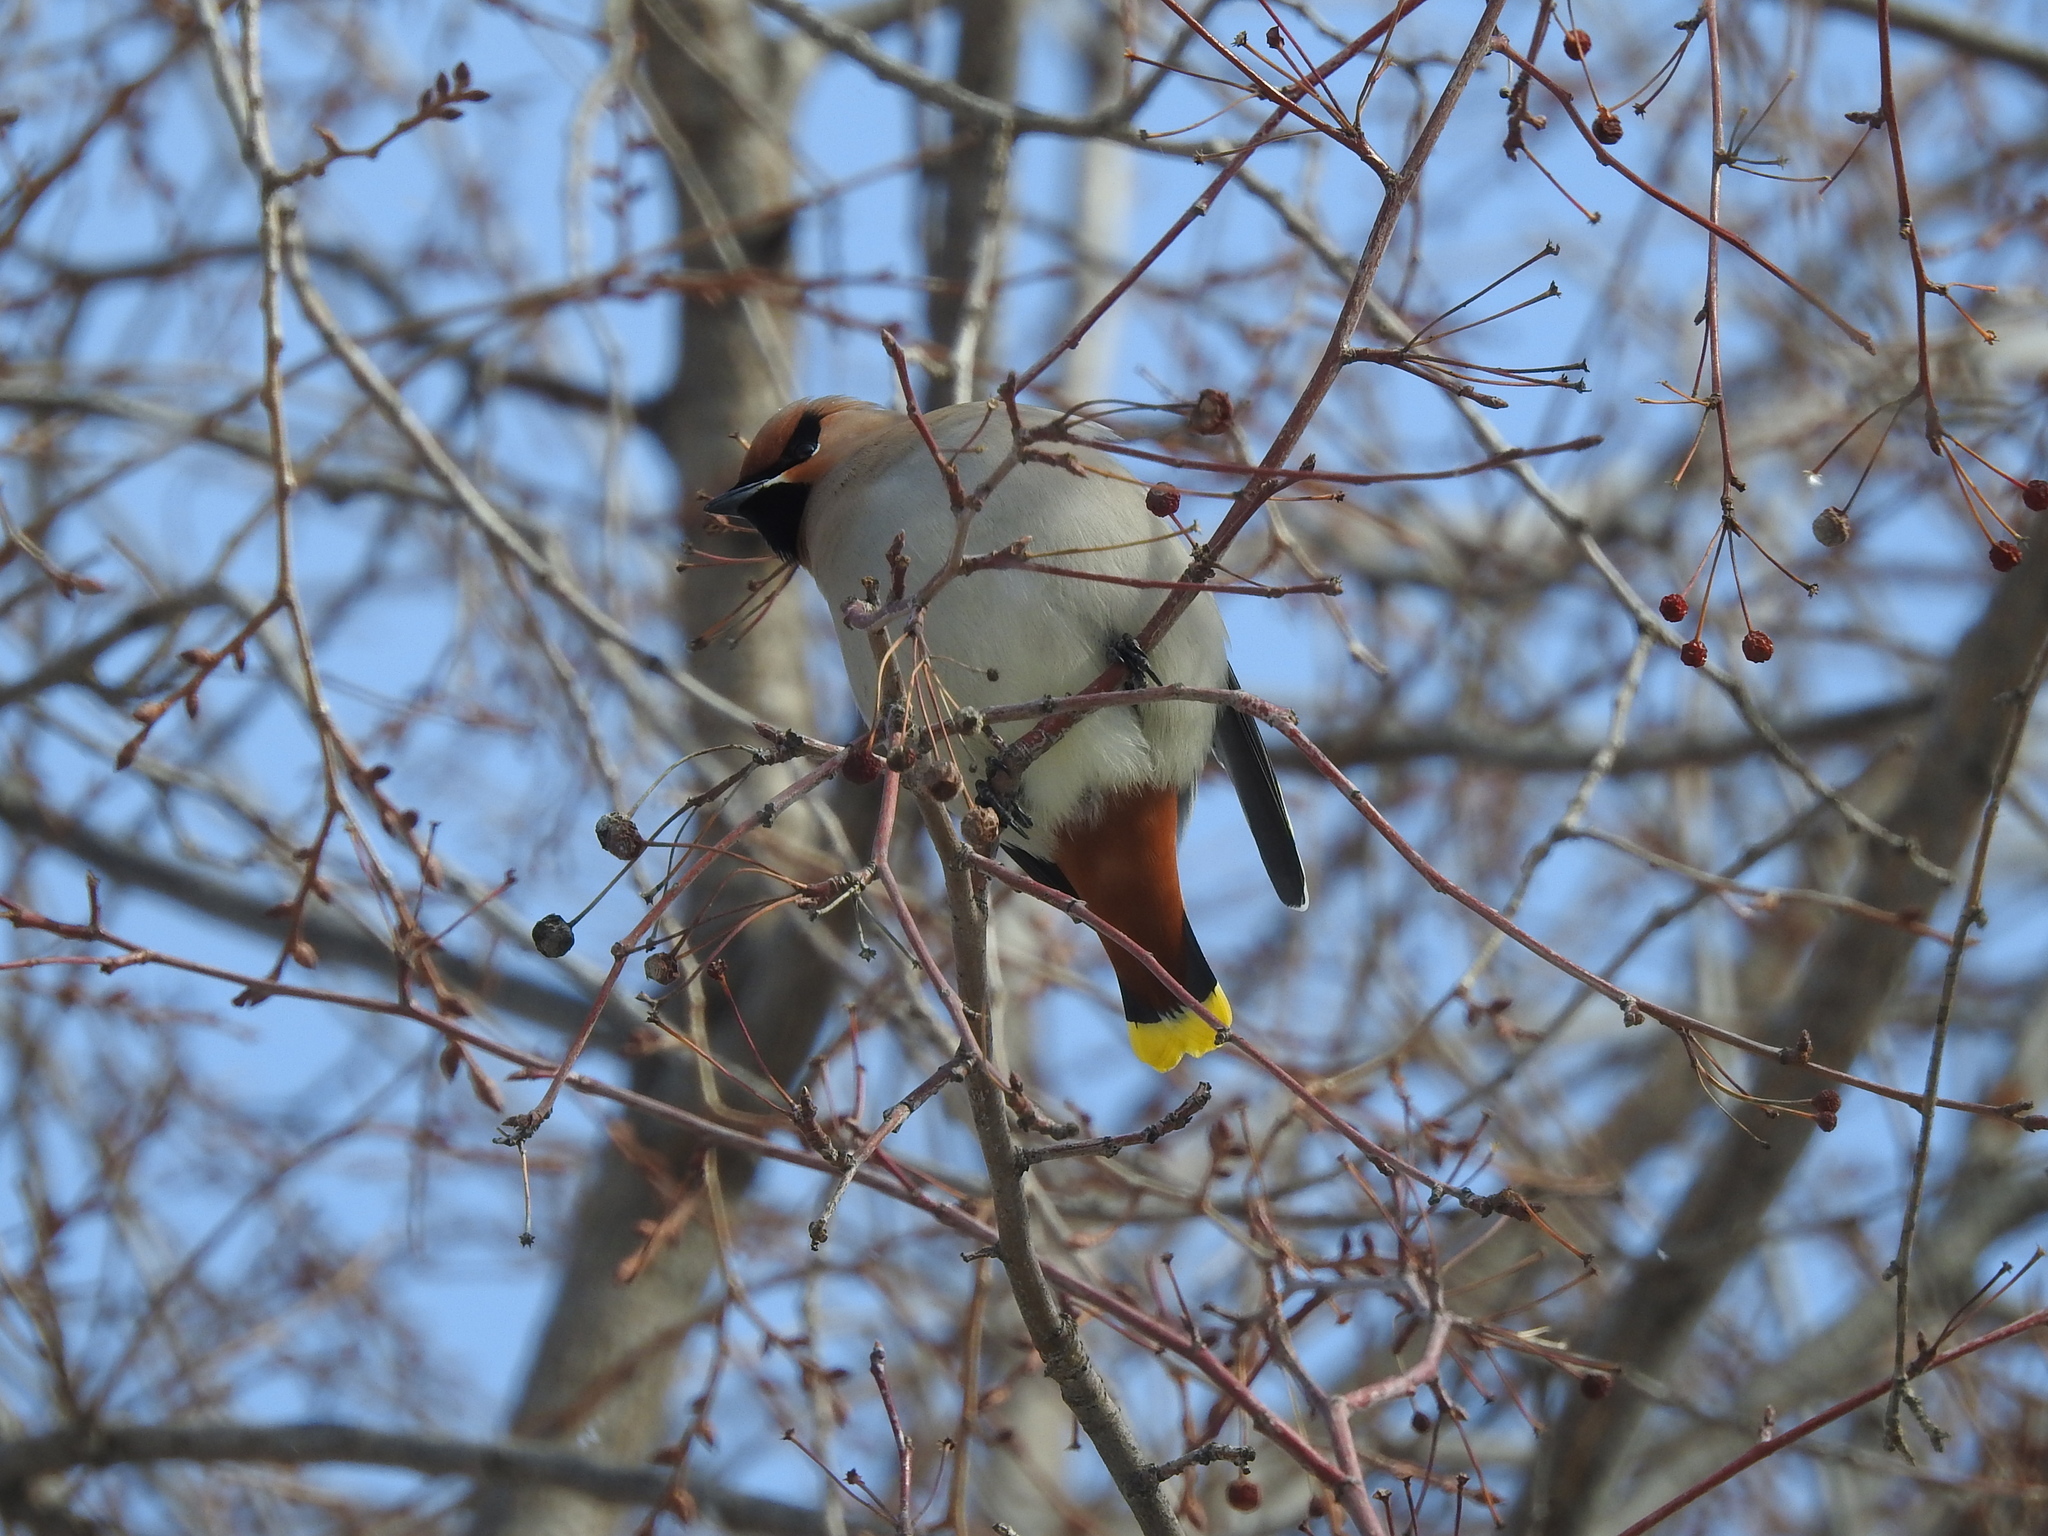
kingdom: Animalia
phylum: Chordata
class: Aves
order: Passeriformes
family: Bombycillidae
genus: Bombycilla
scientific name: Bombycilla garrulus
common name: Bohemian waxwing
